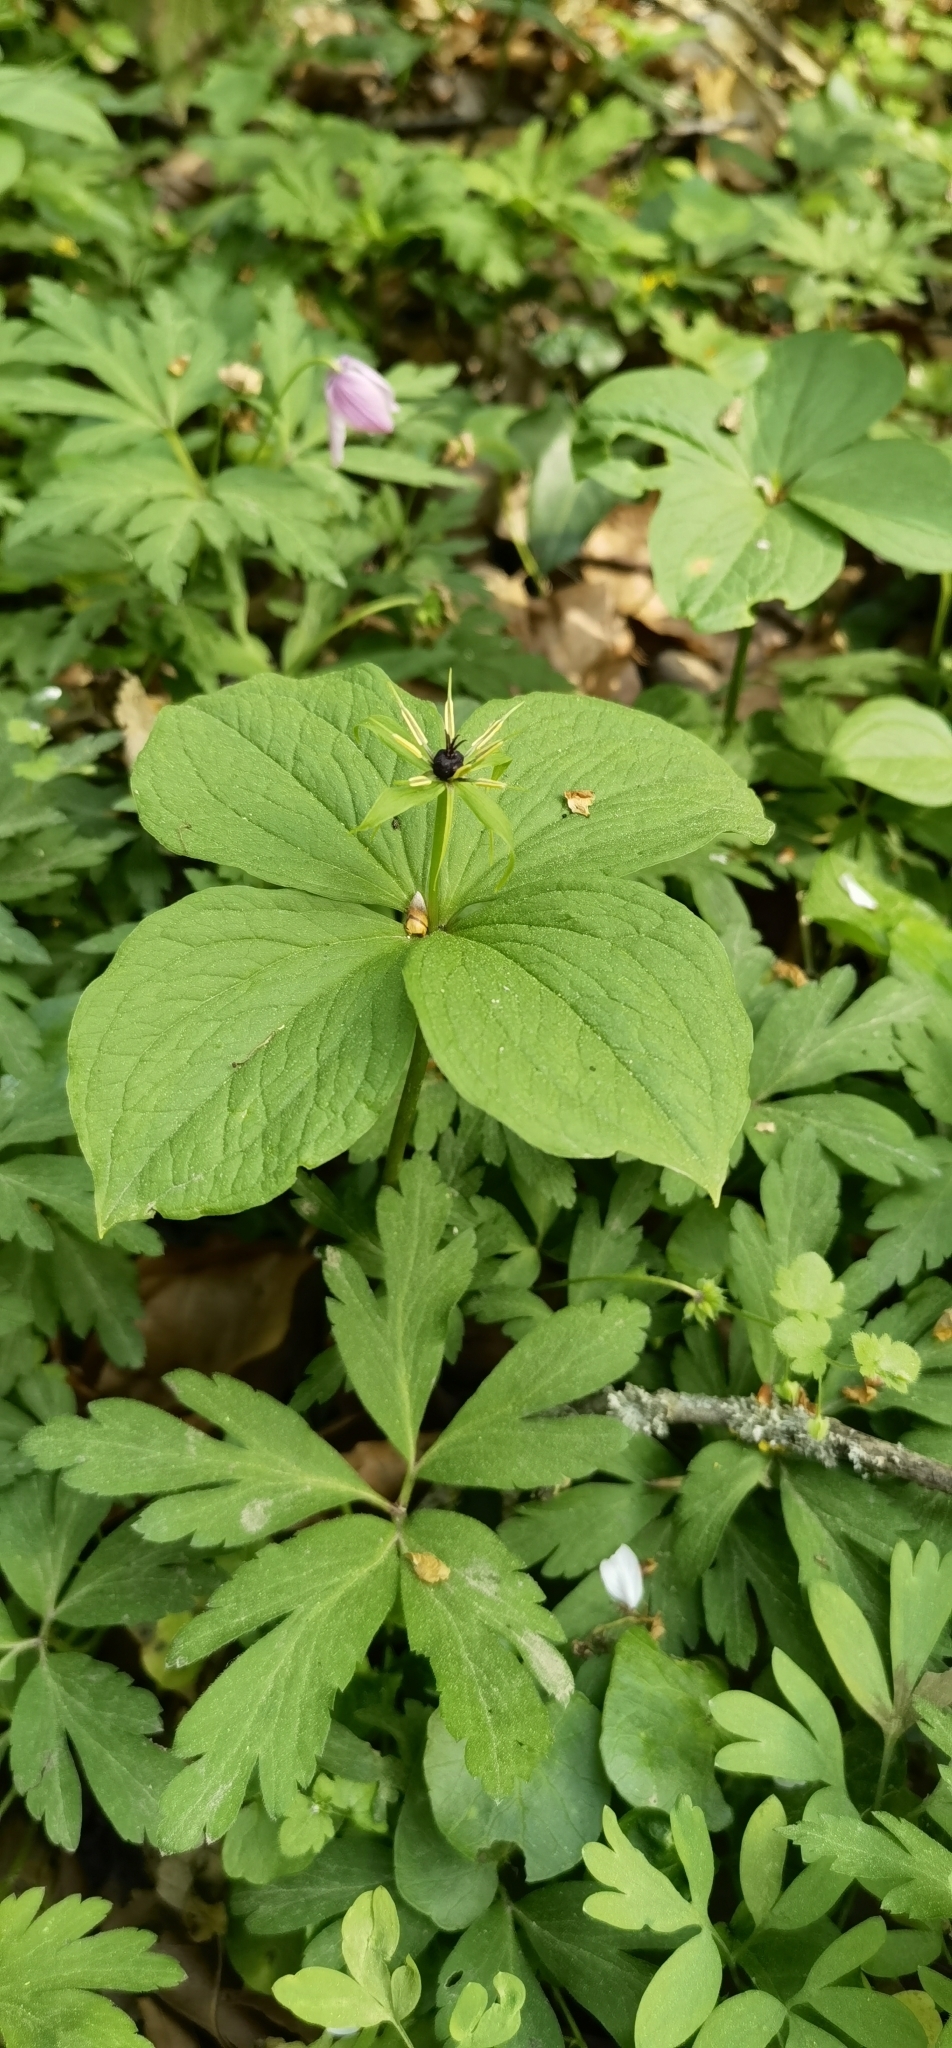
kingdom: Plantae
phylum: Tracheophyta
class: Liliopsida
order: Liliales
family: Melanthiaceae
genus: Paris
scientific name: Paris quadrifolia
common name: Herb-paris
